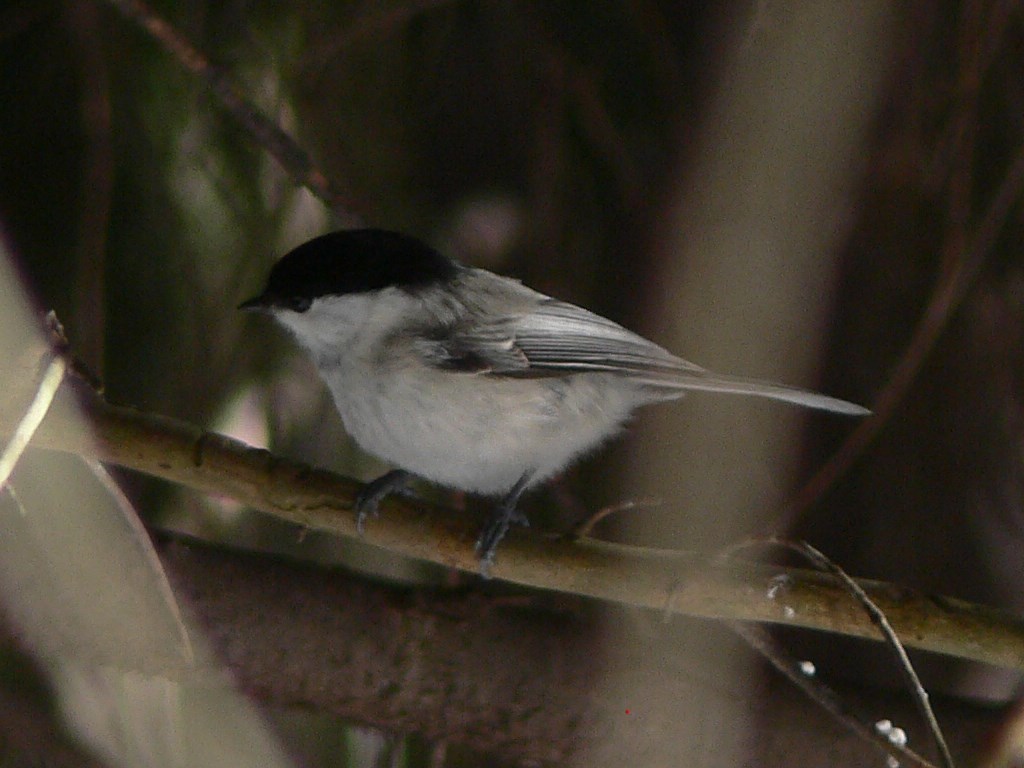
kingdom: Animalia
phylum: Chordata
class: Aves
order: Passeriformes
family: Paridae
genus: Poecile
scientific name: Poecile montanus
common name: Willow tit
